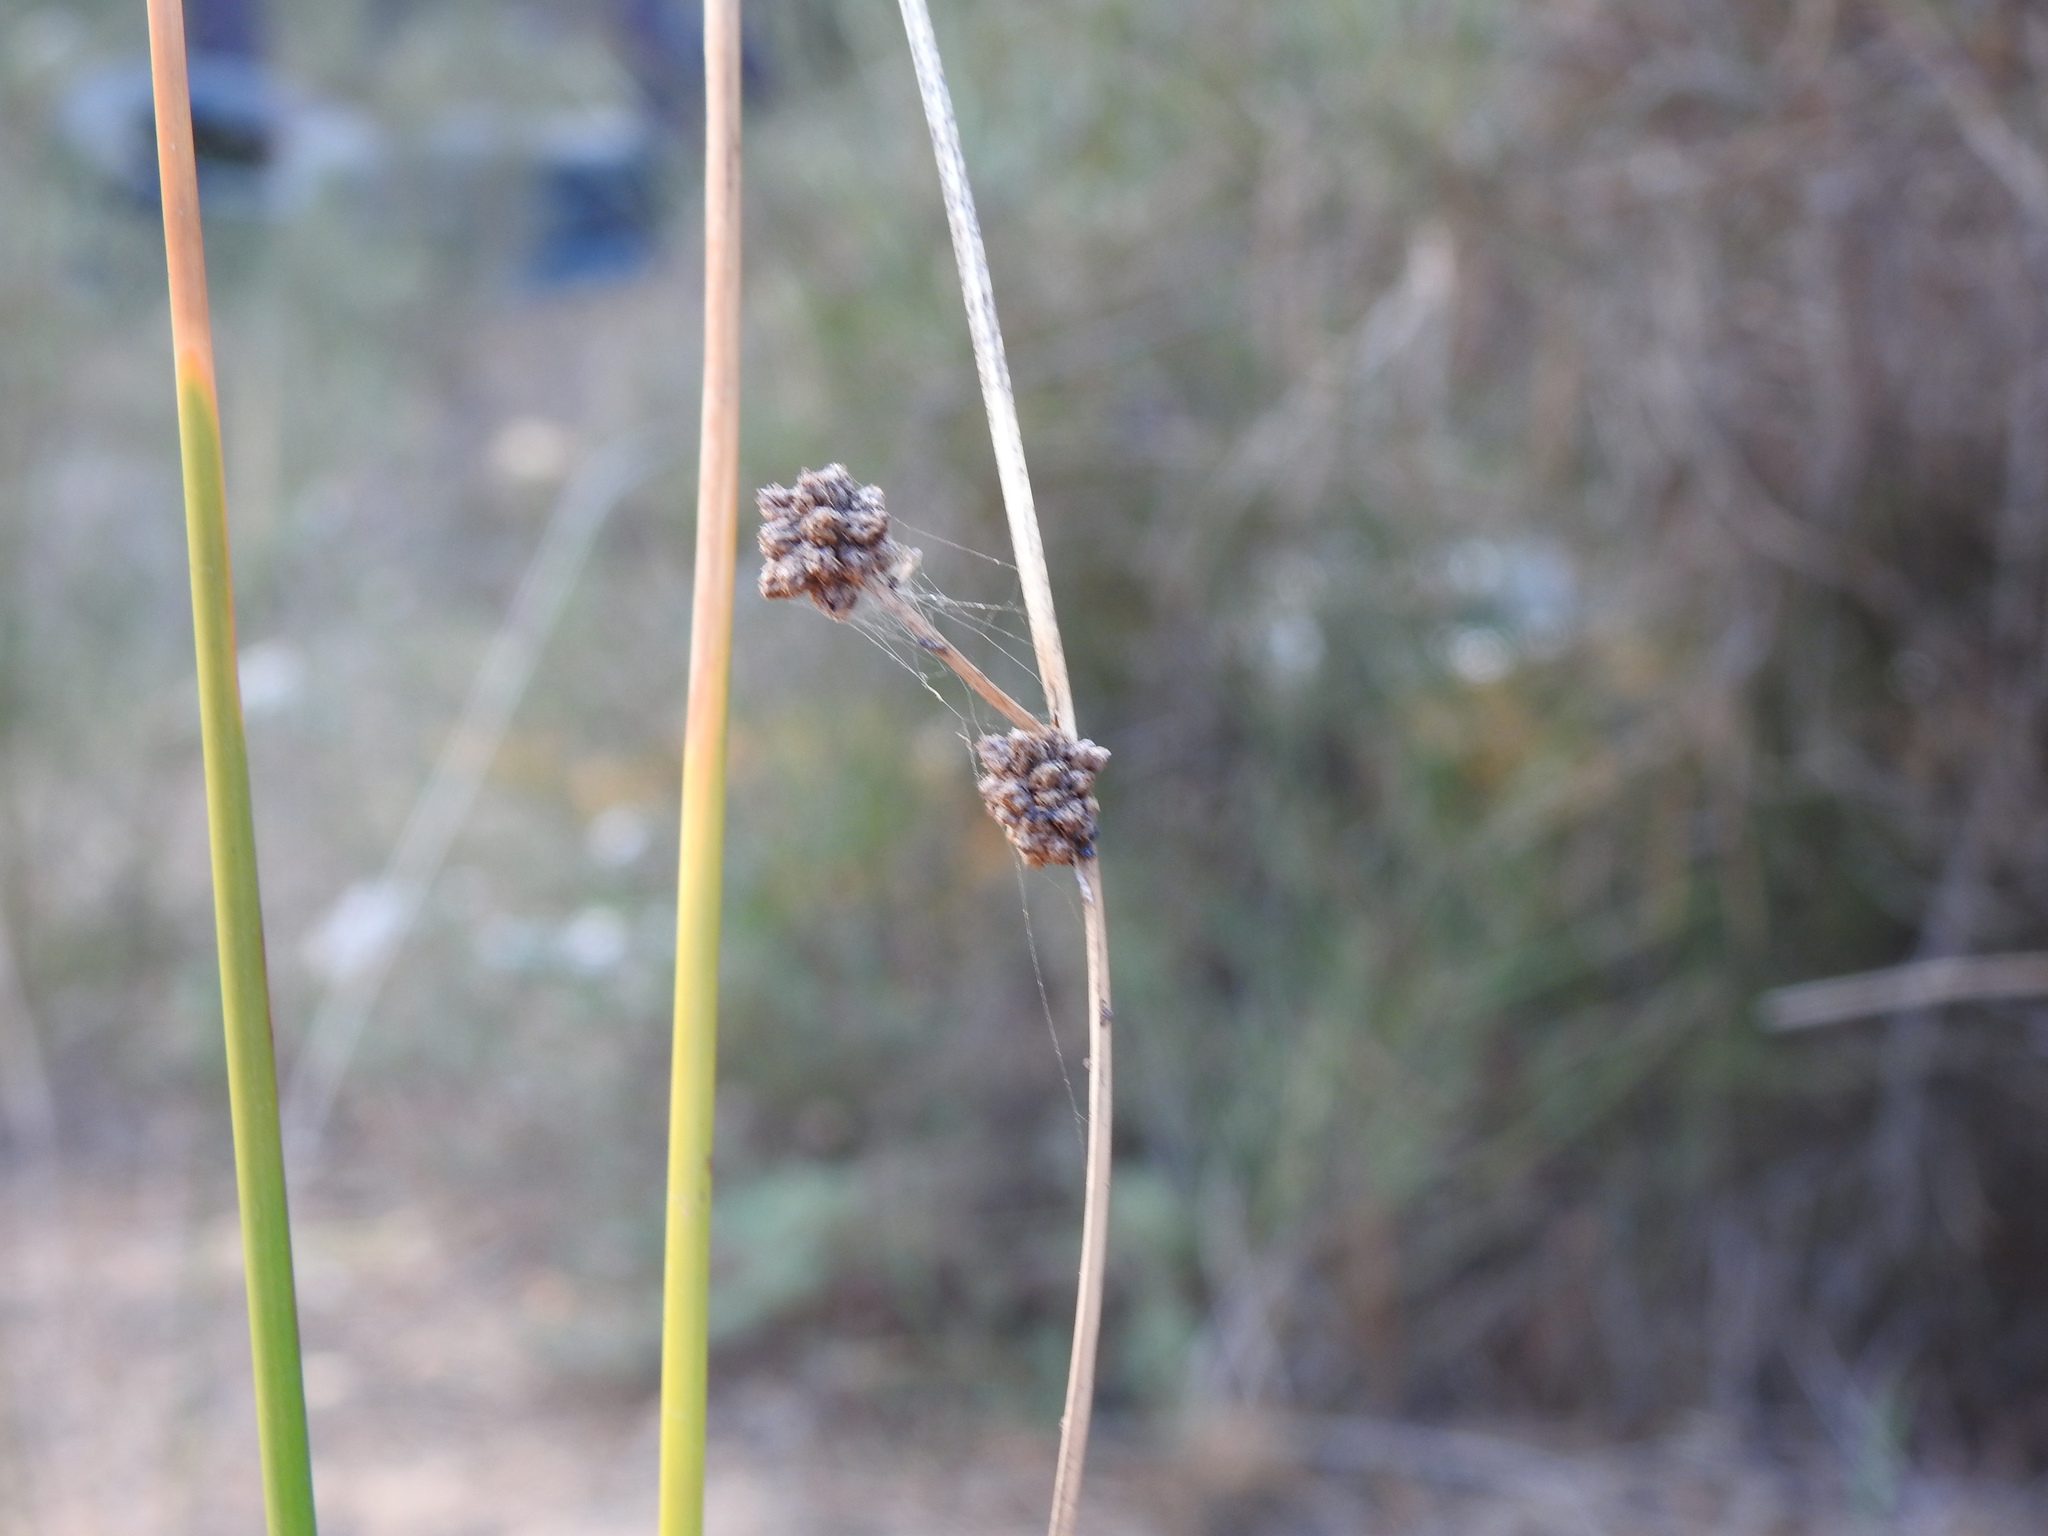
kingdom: Plantae
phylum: Tracheophyta
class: Liliopsida
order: Poales
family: Cyperaceae
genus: Scirpoides
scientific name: Scirpoides holoschoenus
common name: Round-headed club-rush
